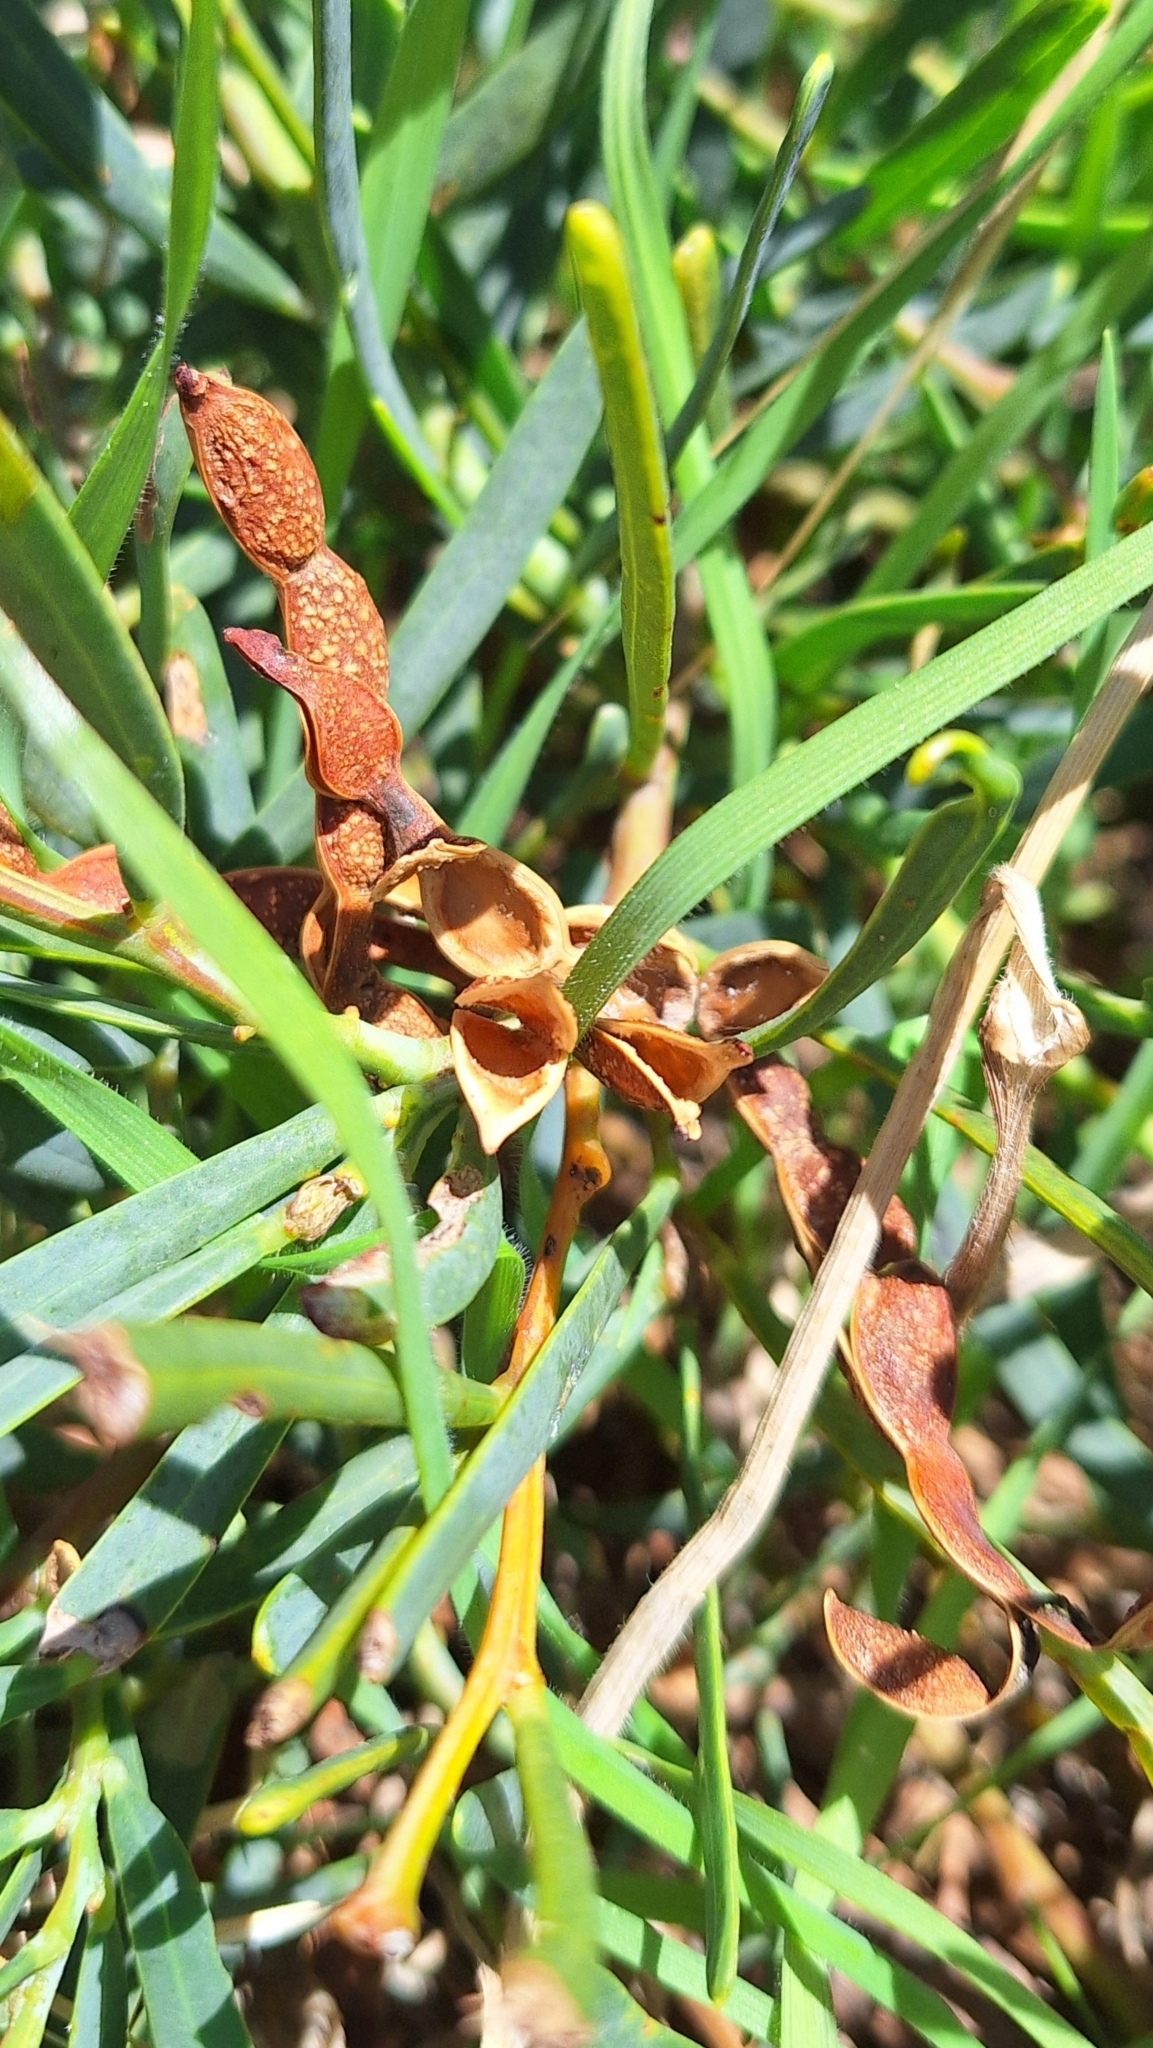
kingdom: Plantae
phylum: Tracheophyta
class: Magnoliopsida
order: Fabales
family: Fabaceae
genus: Acacia
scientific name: Acacia cupularis
